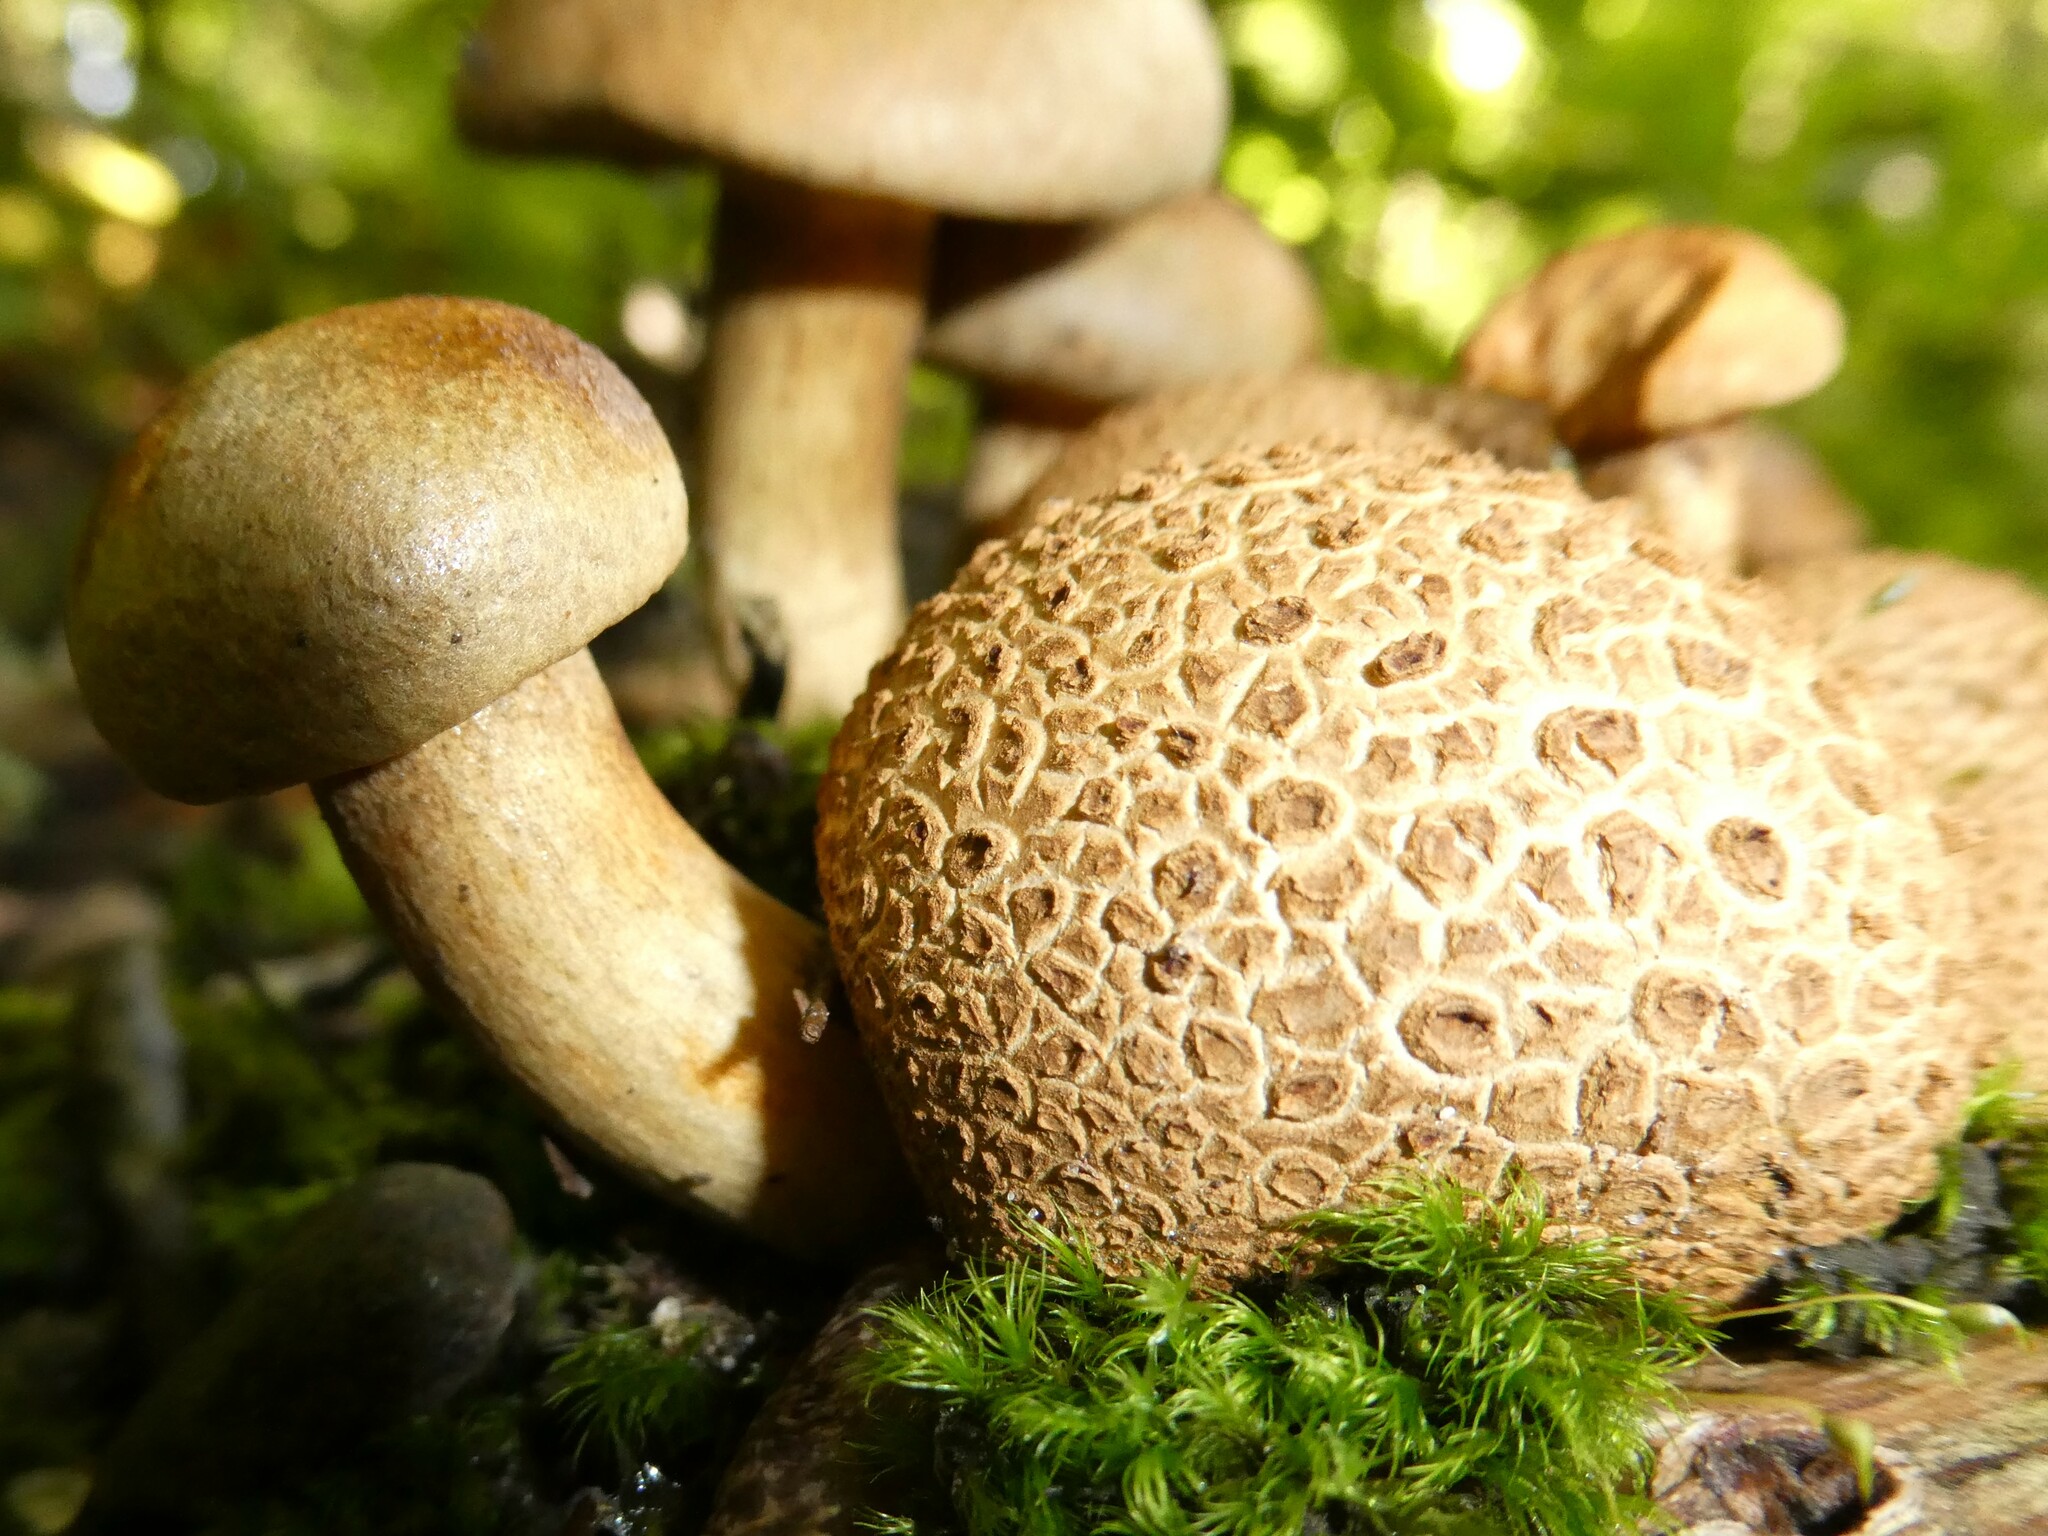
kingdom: Fungi
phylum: Basidiomycota
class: Agaricomycetes
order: Boletales
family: Boletaceae
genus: Pseudoboletus
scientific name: Pseudoboletus parasiticus
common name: Parasitic bolete
